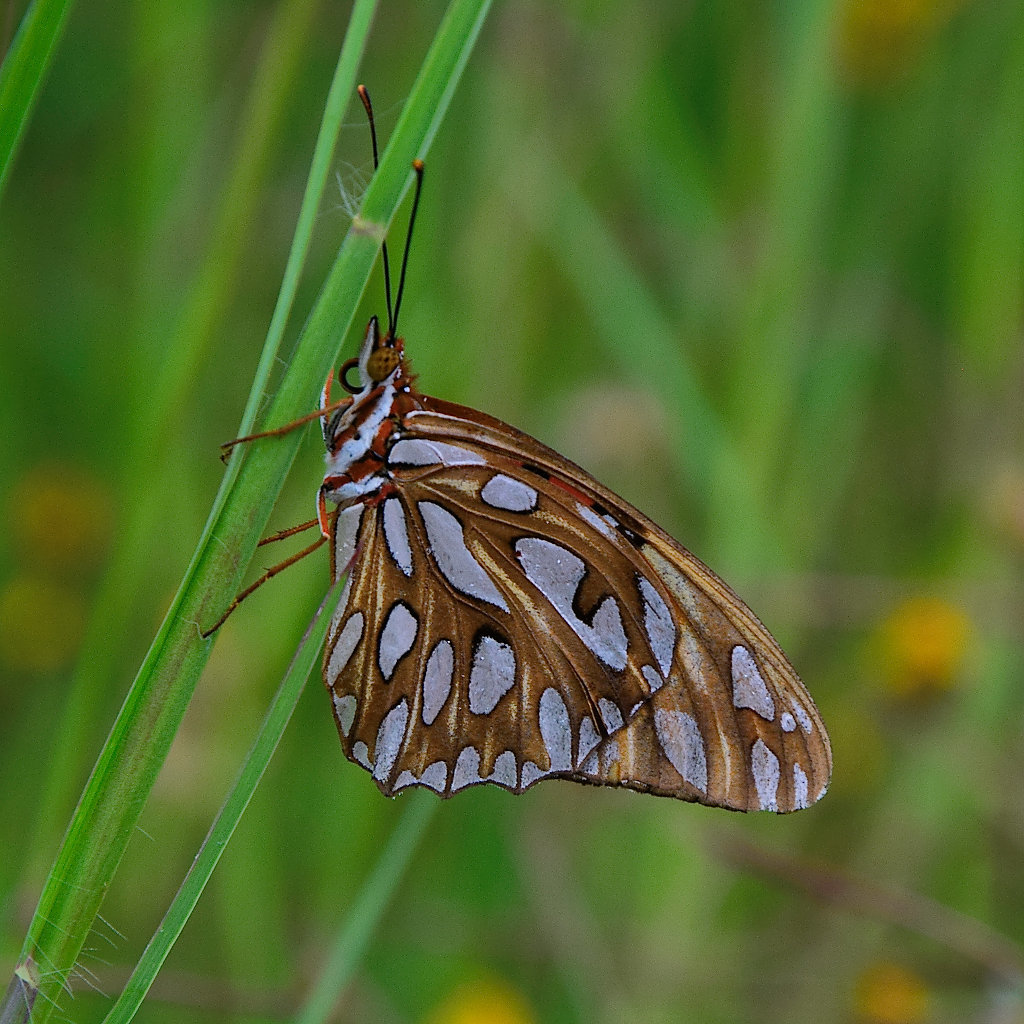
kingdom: Animalia
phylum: Arthropoda
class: Insecta
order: Lepidoptera
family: Nymphalidae
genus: Dione
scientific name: Dione vanillae
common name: Gulf fritillary
